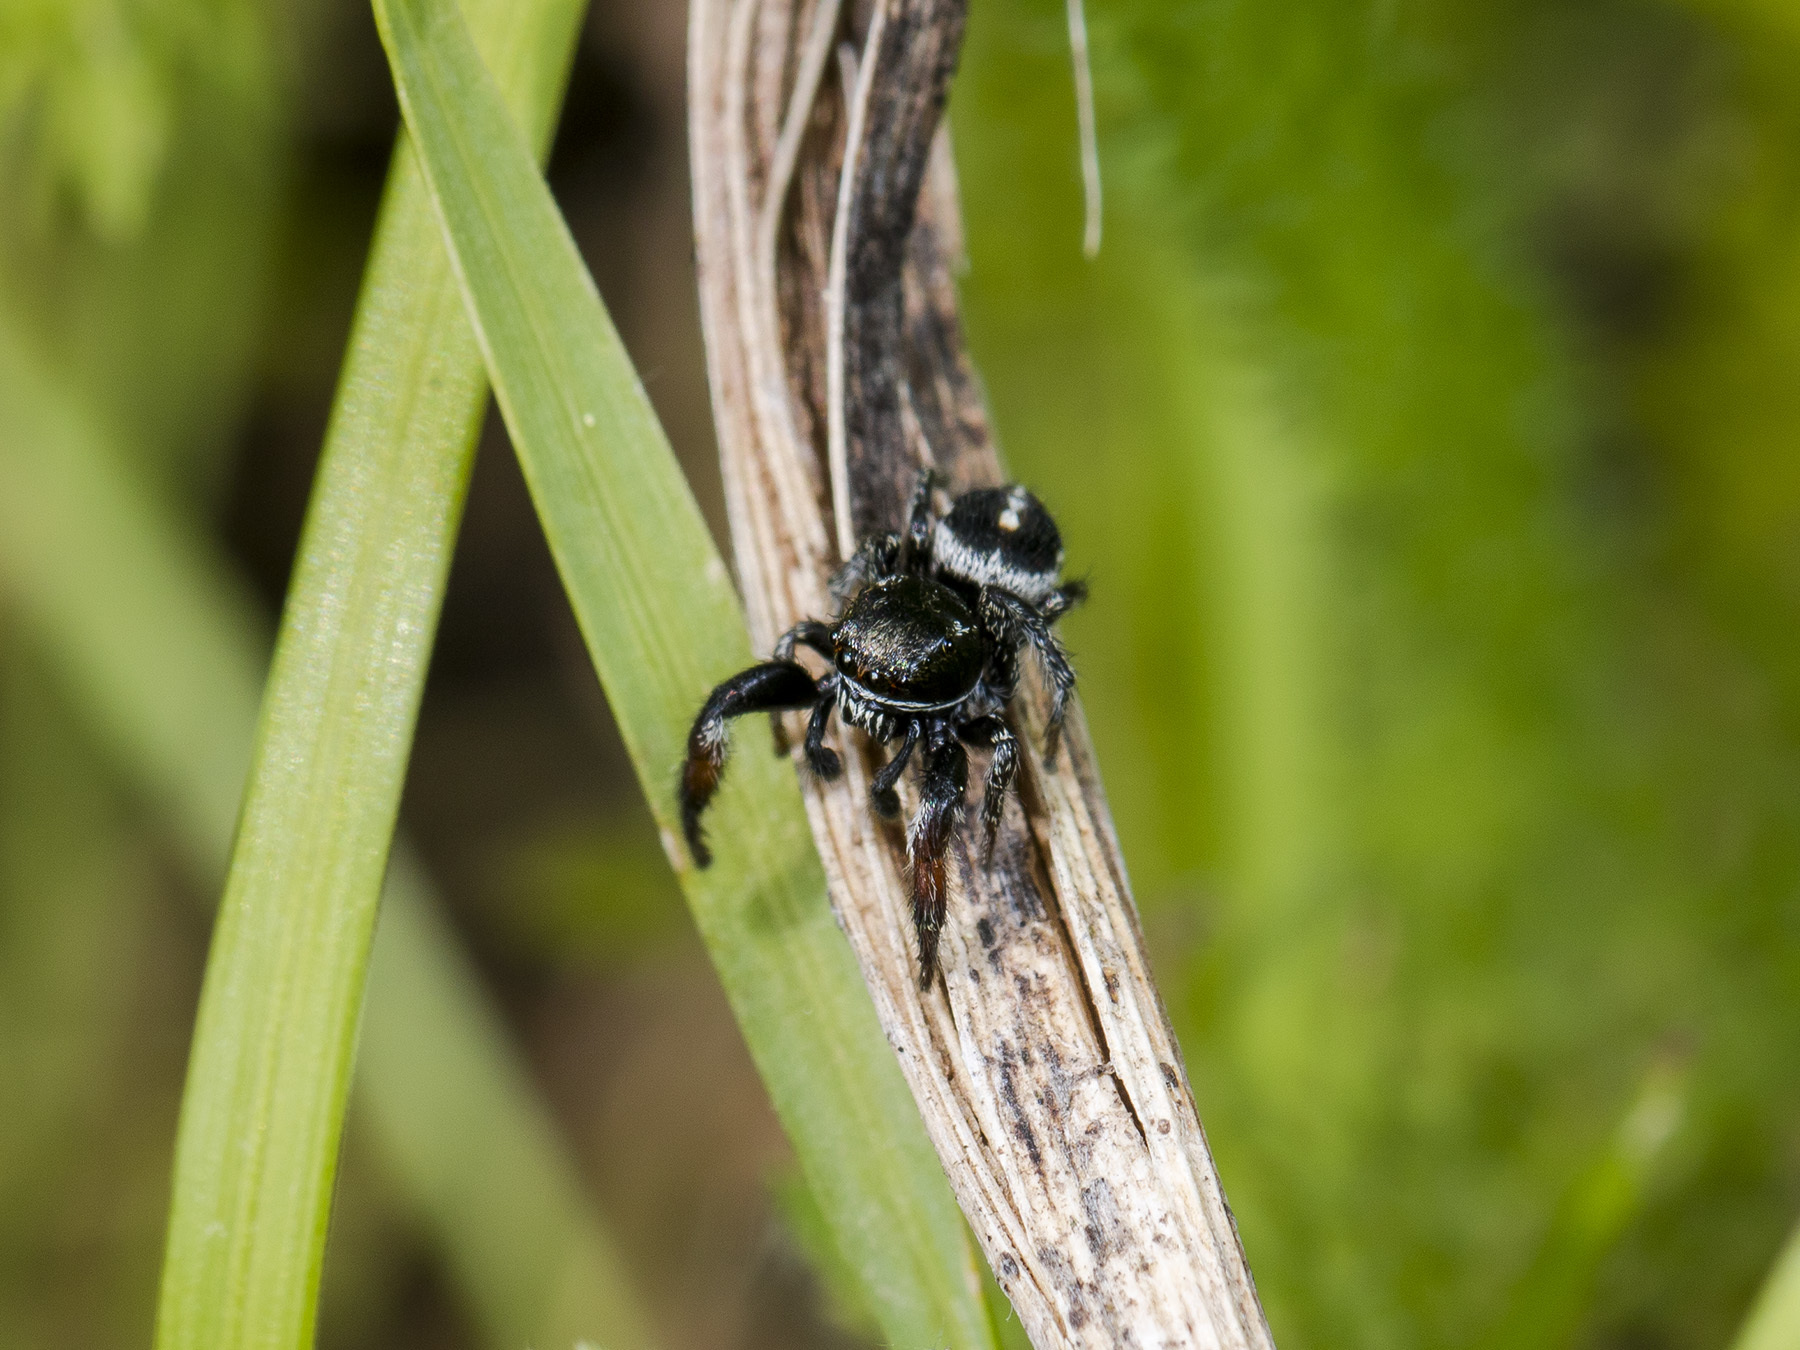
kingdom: Animalia
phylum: Arthropoda
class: Arachnida
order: Araneae
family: Salticidae
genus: Pellenes
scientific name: Pellenes allegrii
